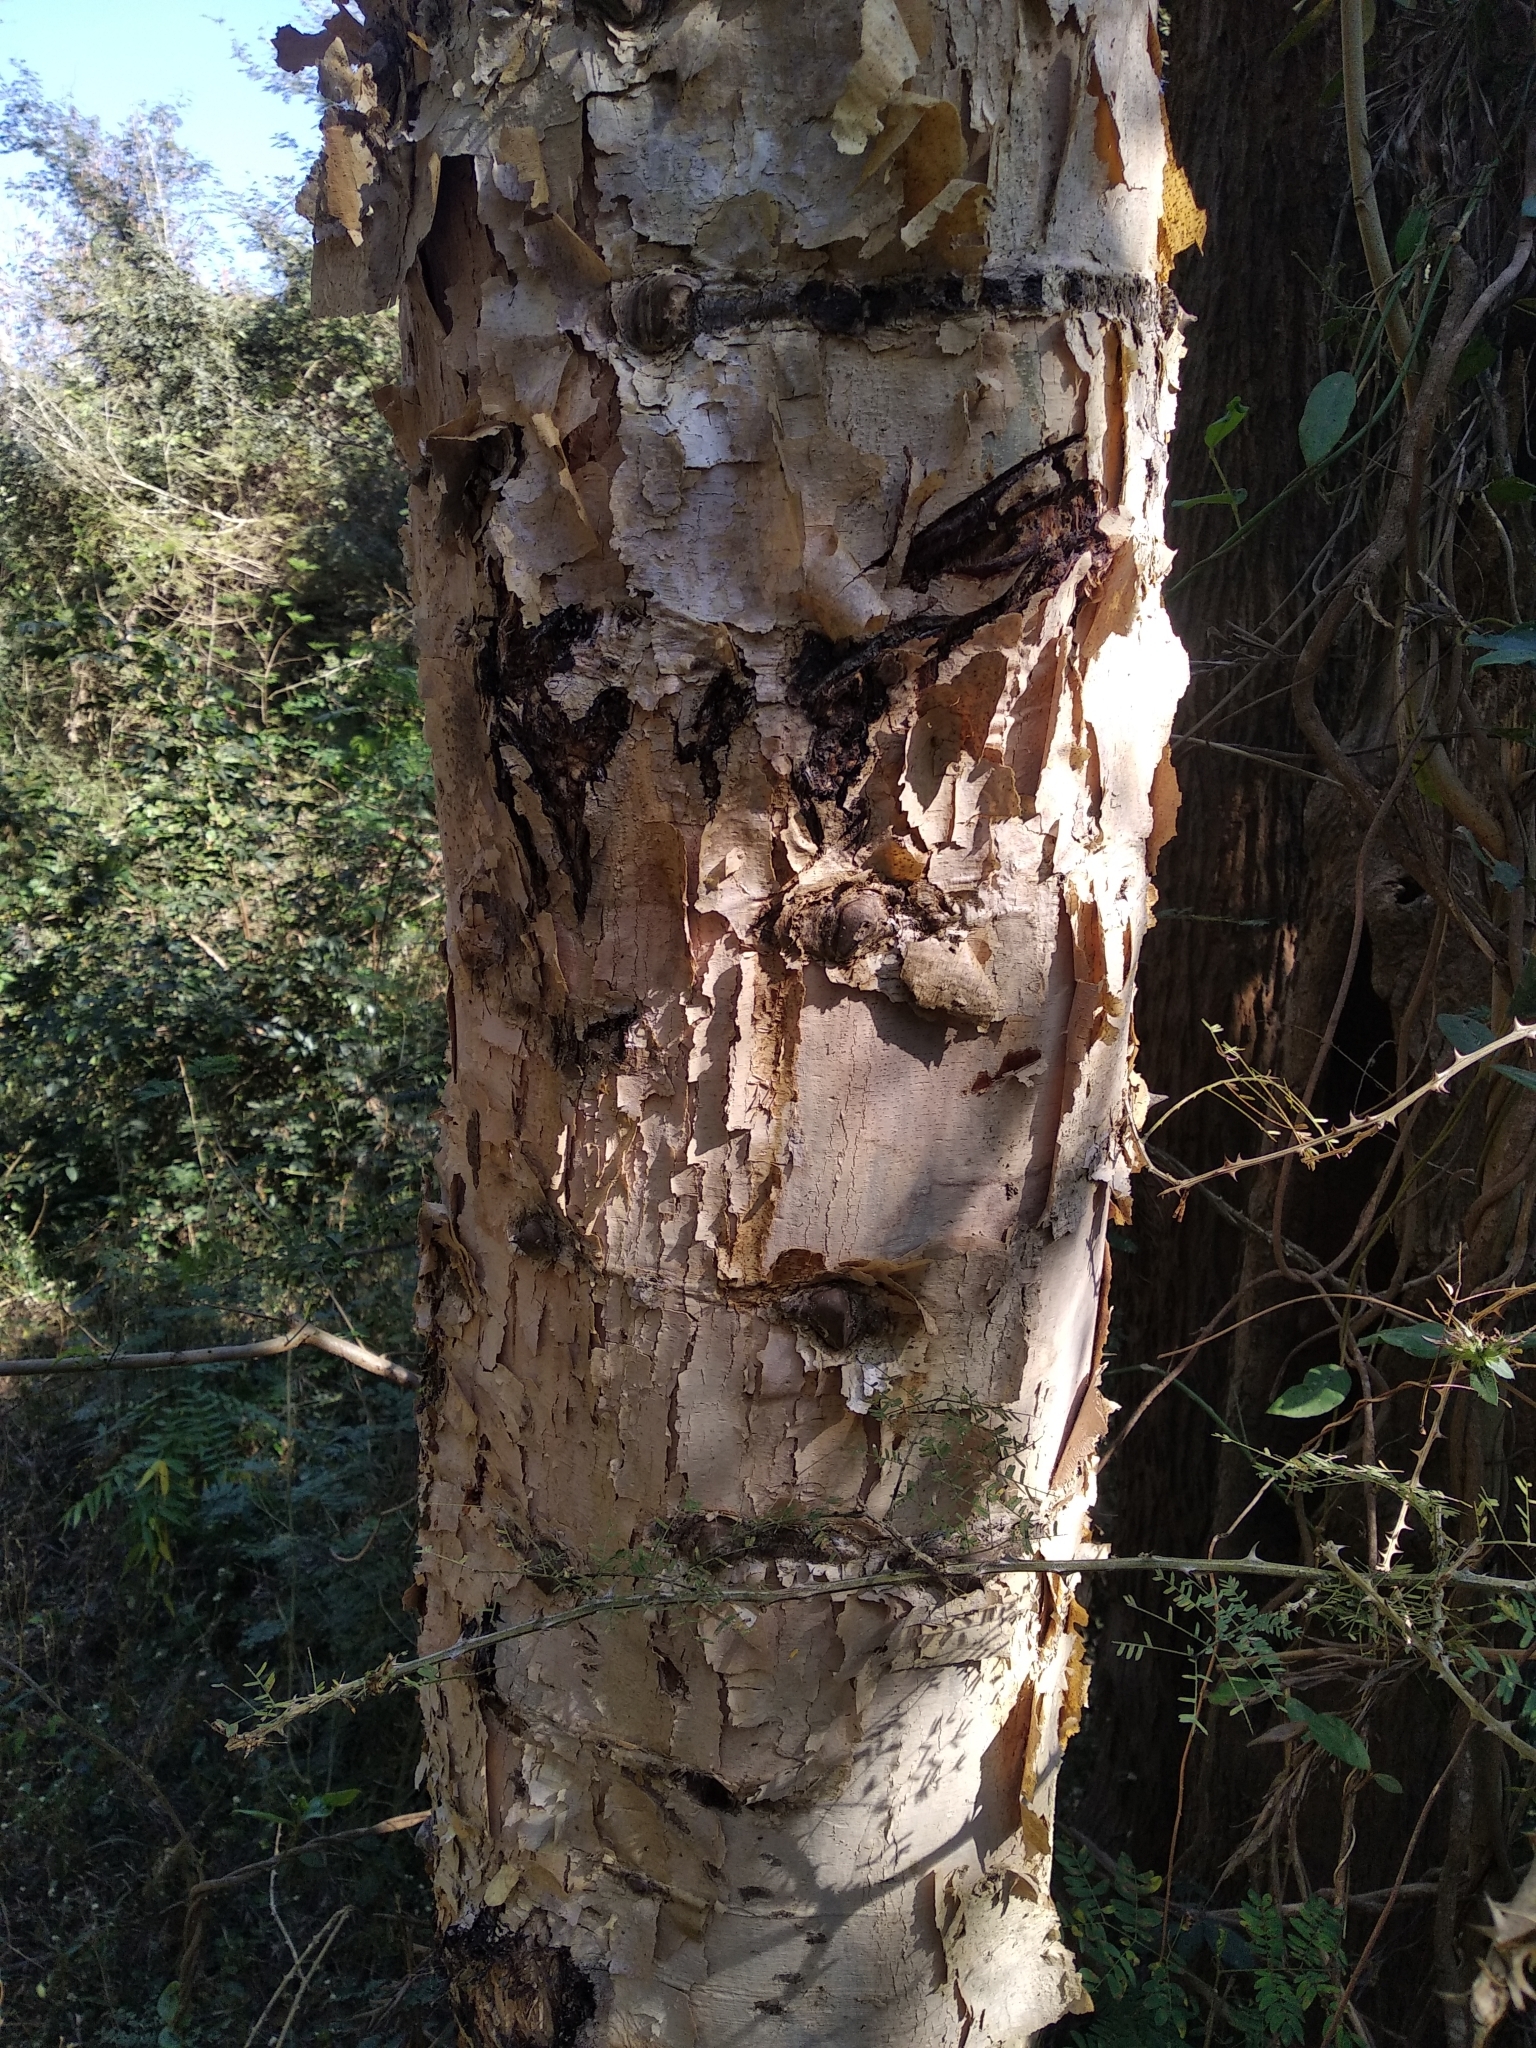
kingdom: Plantae
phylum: Tracheophyta
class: Magnoliopsida
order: Fabales
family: Fabaceae
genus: Senegalia
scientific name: Senegalia polyacantha
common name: Whitethorn
